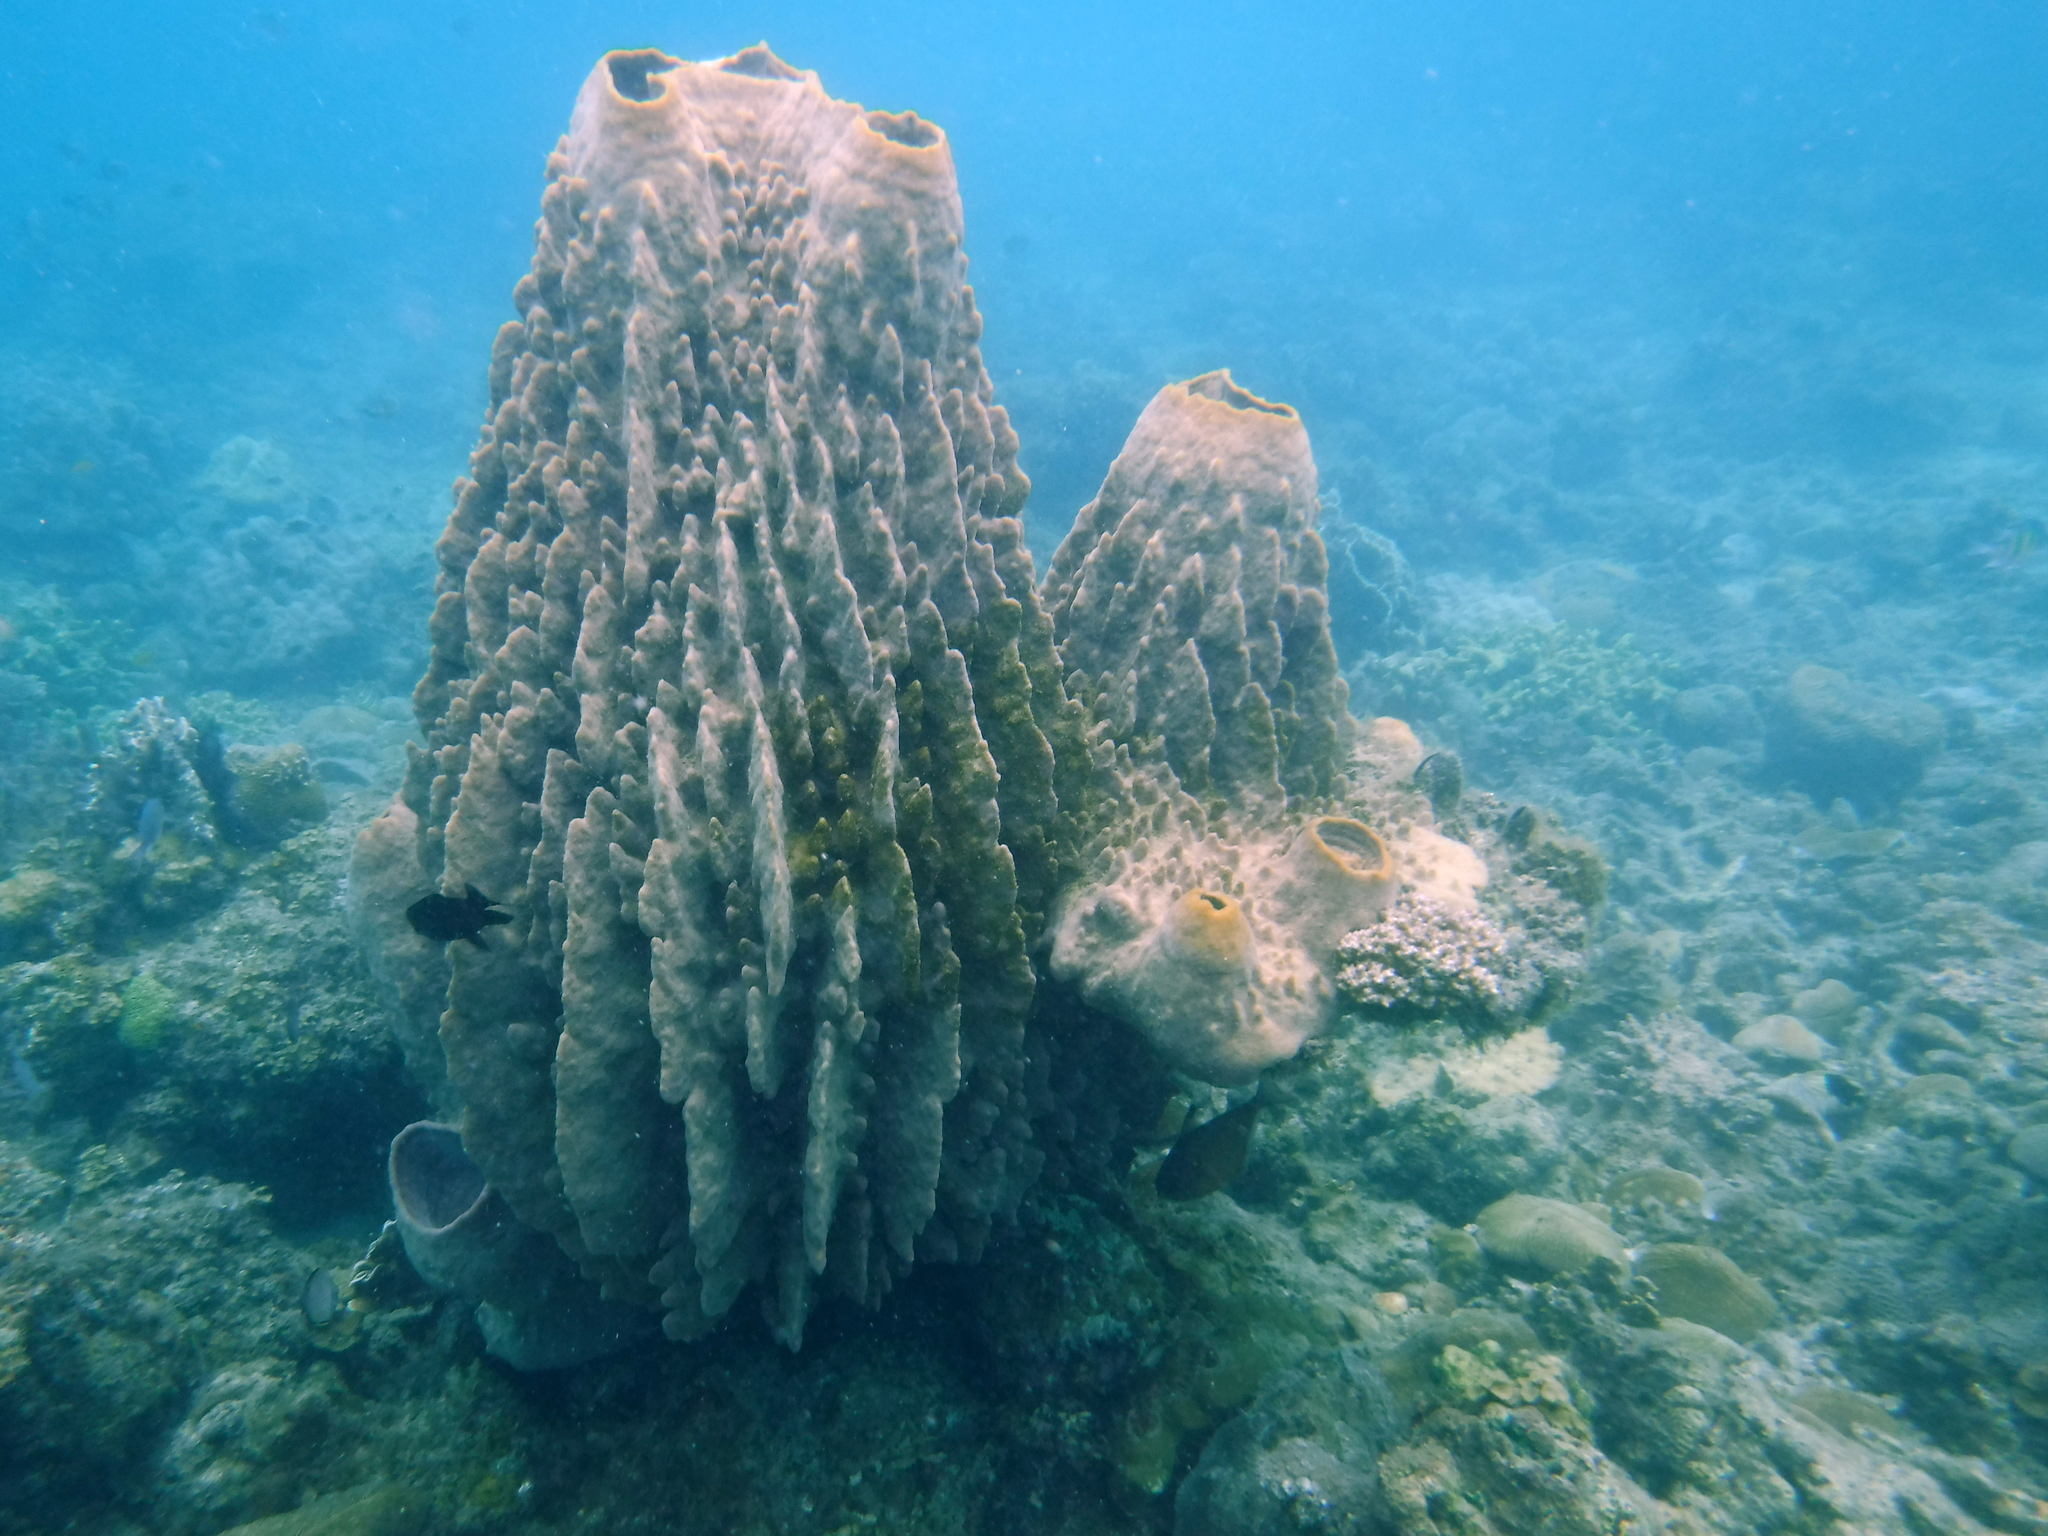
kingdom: Animalia
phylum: Porifera
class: Demospongiae
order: Haplosclerida
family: Petrosiidae
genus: Xestospongia
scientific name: Xestospongia testudinaria
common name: Barrel sponge
